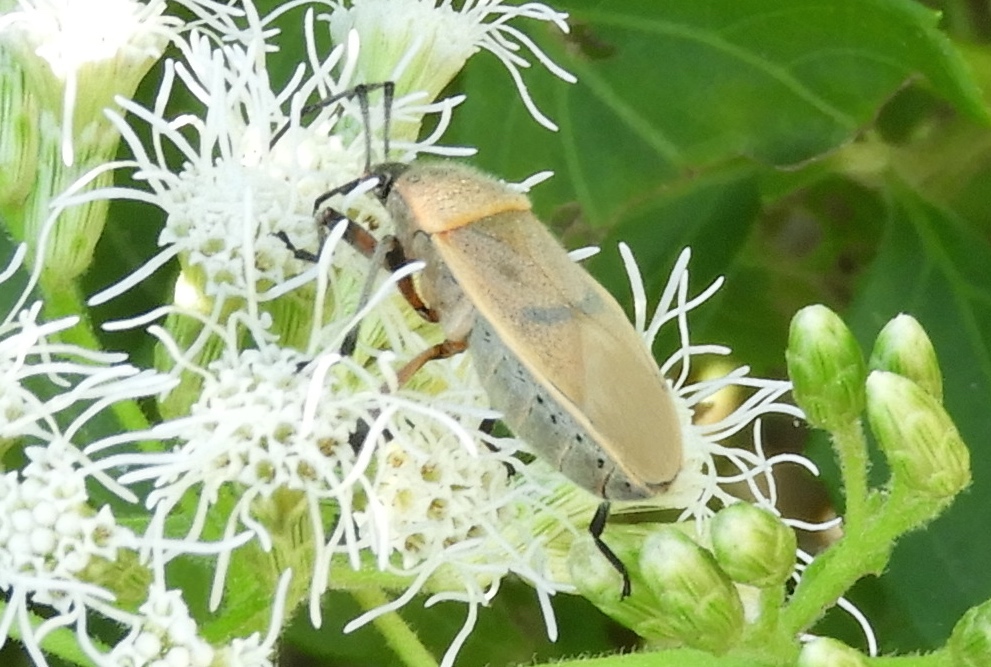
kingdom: Animalia
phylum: Arthropoda
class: Insecta
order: Hemiptera
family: Largidae
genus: Largus
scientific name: Largus
